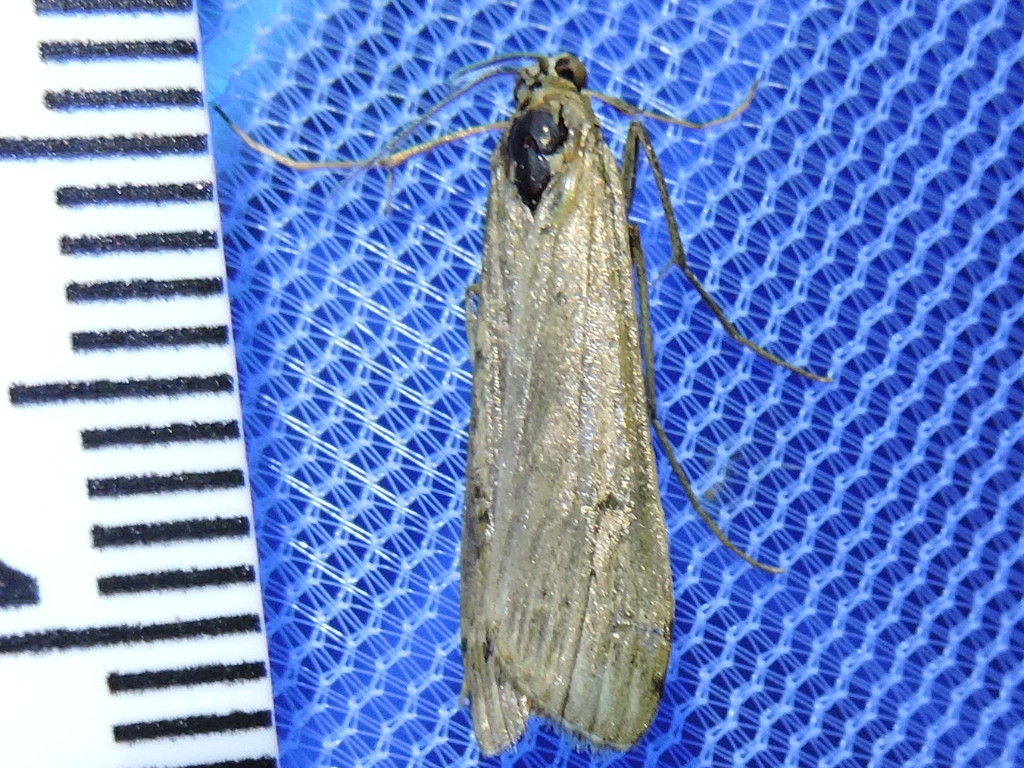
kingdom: Animalia
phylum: Arthropoda
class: Insecta
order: Lepidoptera
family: Crambidae
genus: Nomophila
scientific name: Nomophila nearctica
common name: American rush veneer
